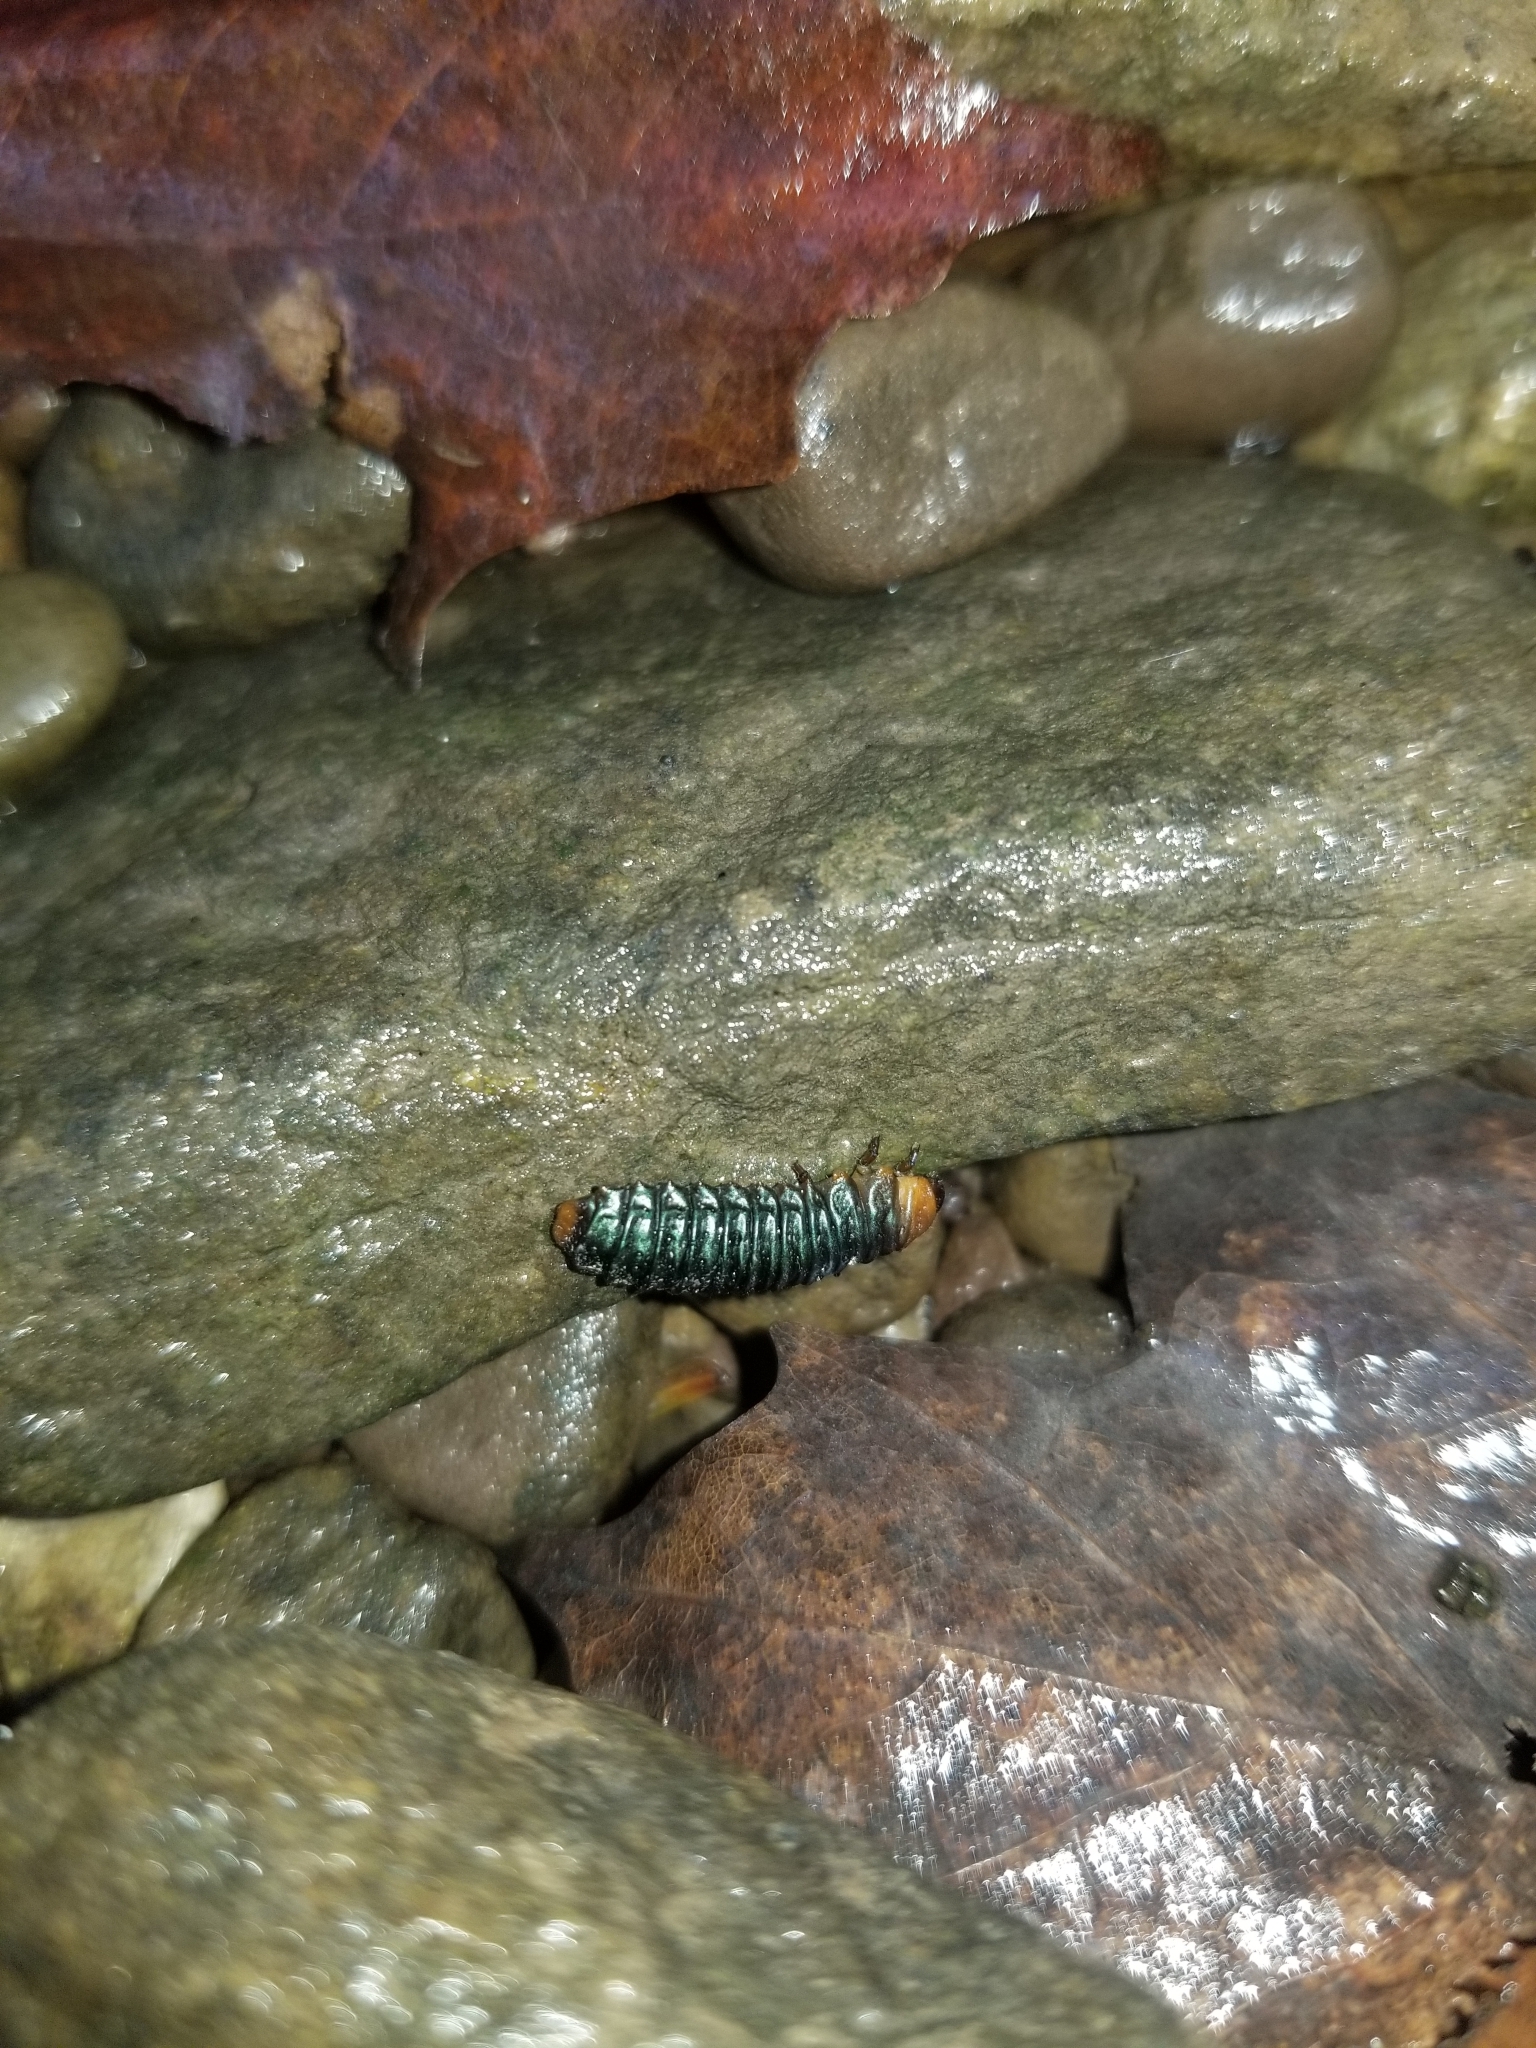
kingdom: Animalia
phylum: Arthropoda
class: Insecta
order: Coleoptera
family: Chrysomelidae
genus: Monocesta
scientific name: Monocesta coryli
